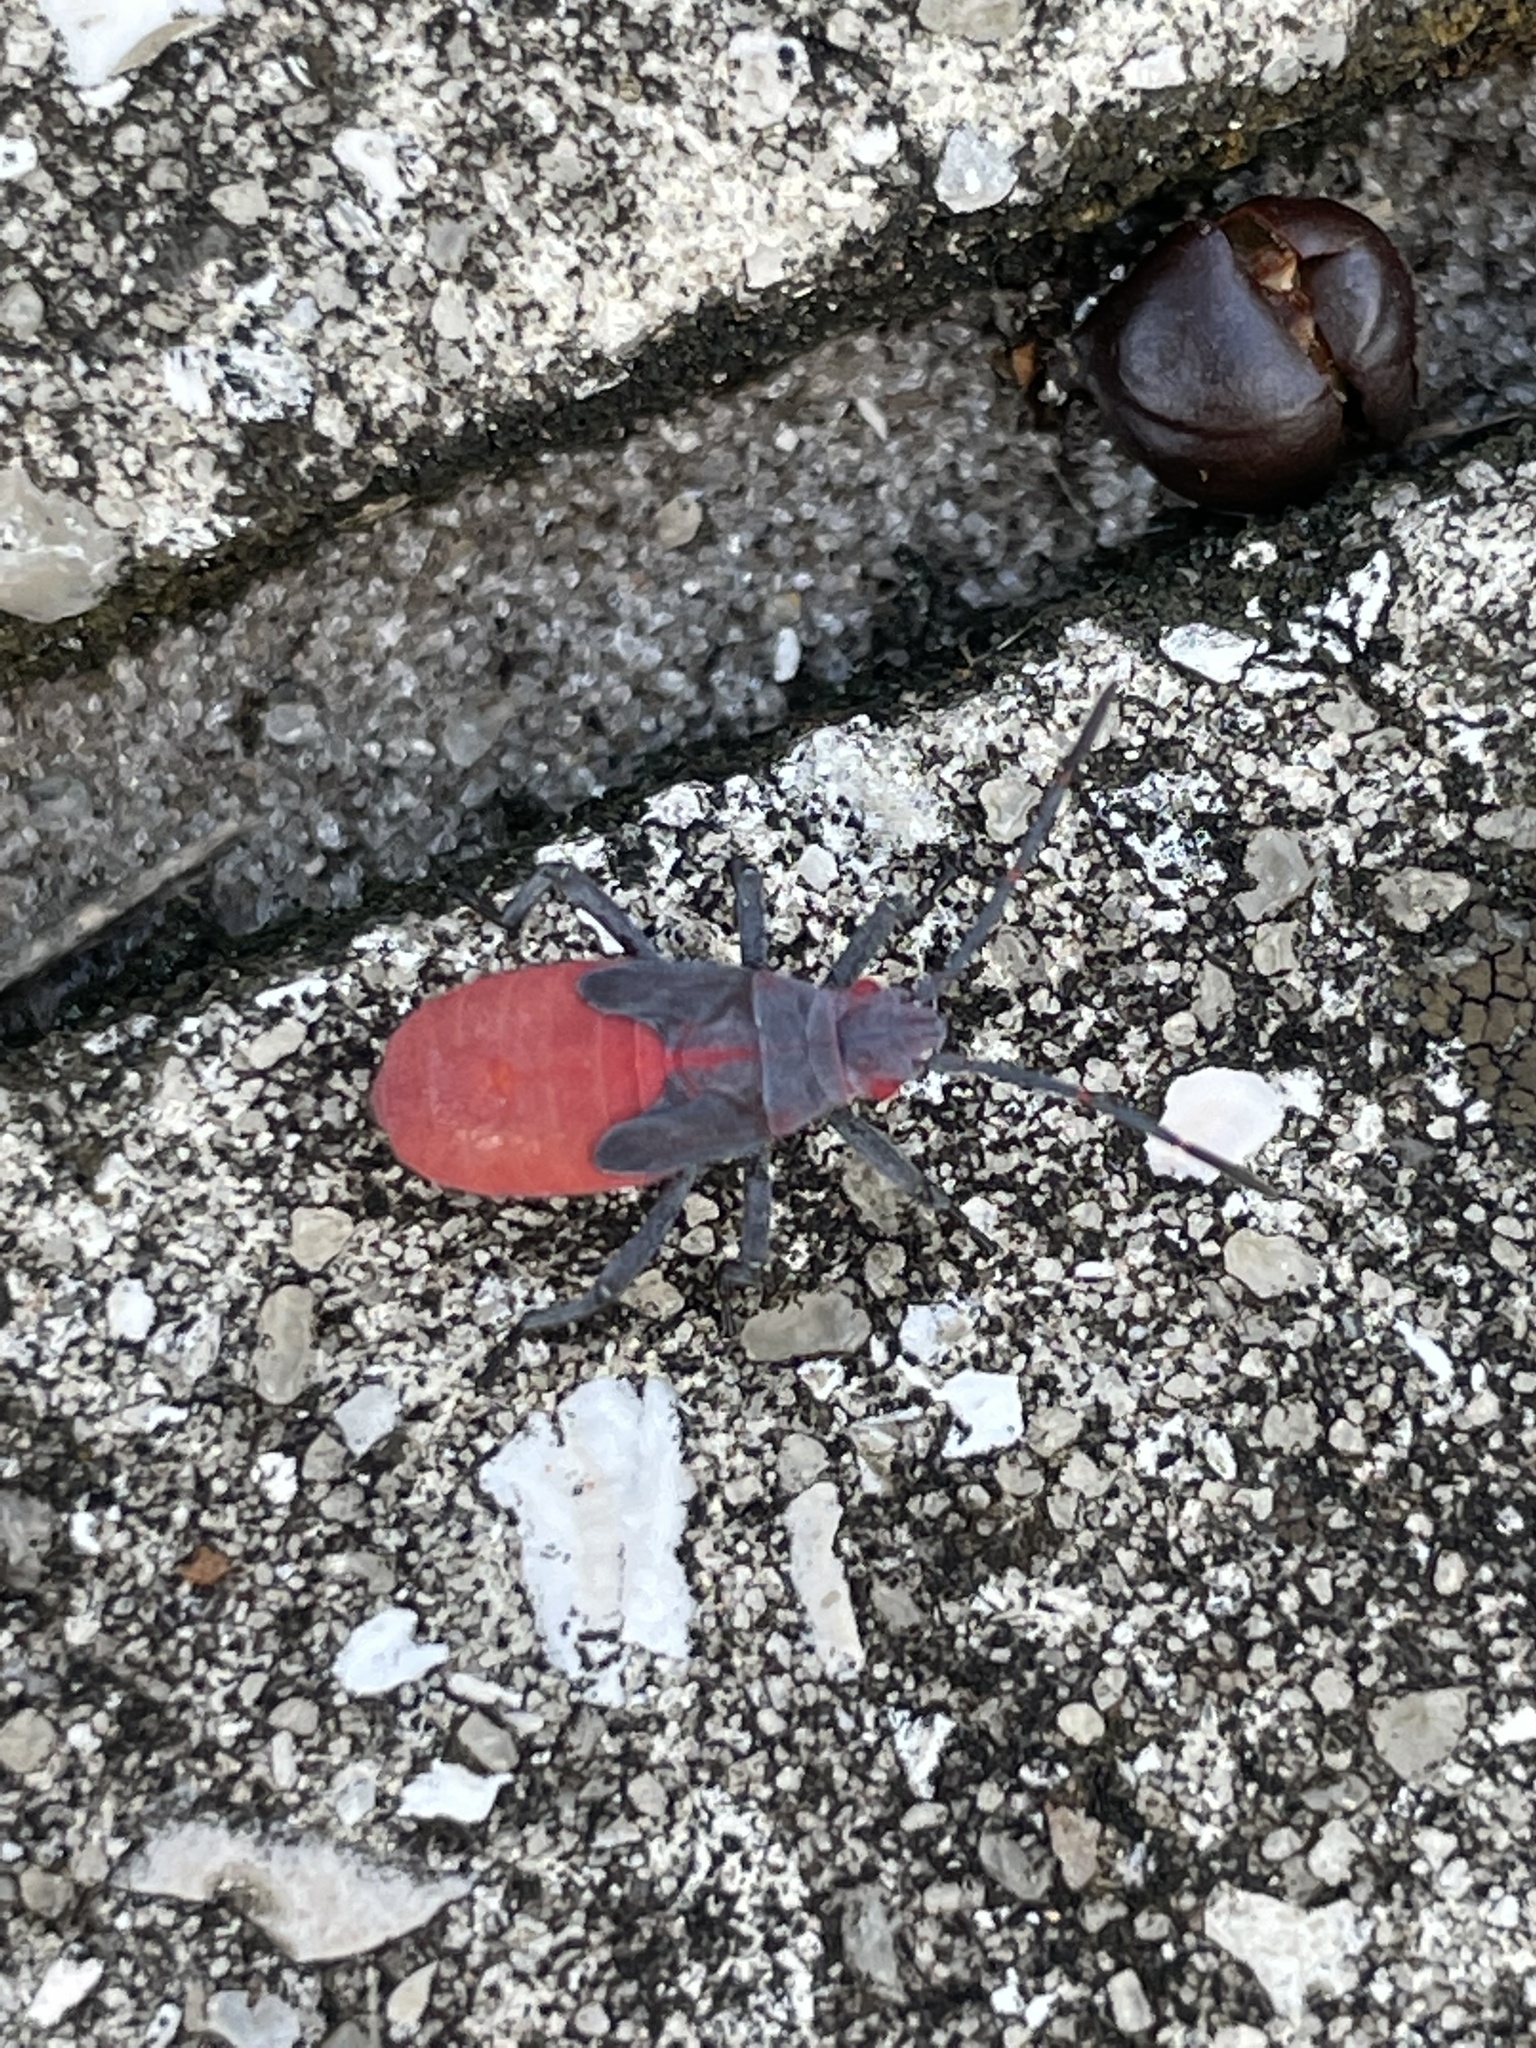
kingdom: Animalia
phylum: Arthropoda
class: Insecta
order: Hemiptera
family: Rhopalidae
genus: Jadera
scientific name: Jadera haematoloma
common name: Red-shouldered bug
